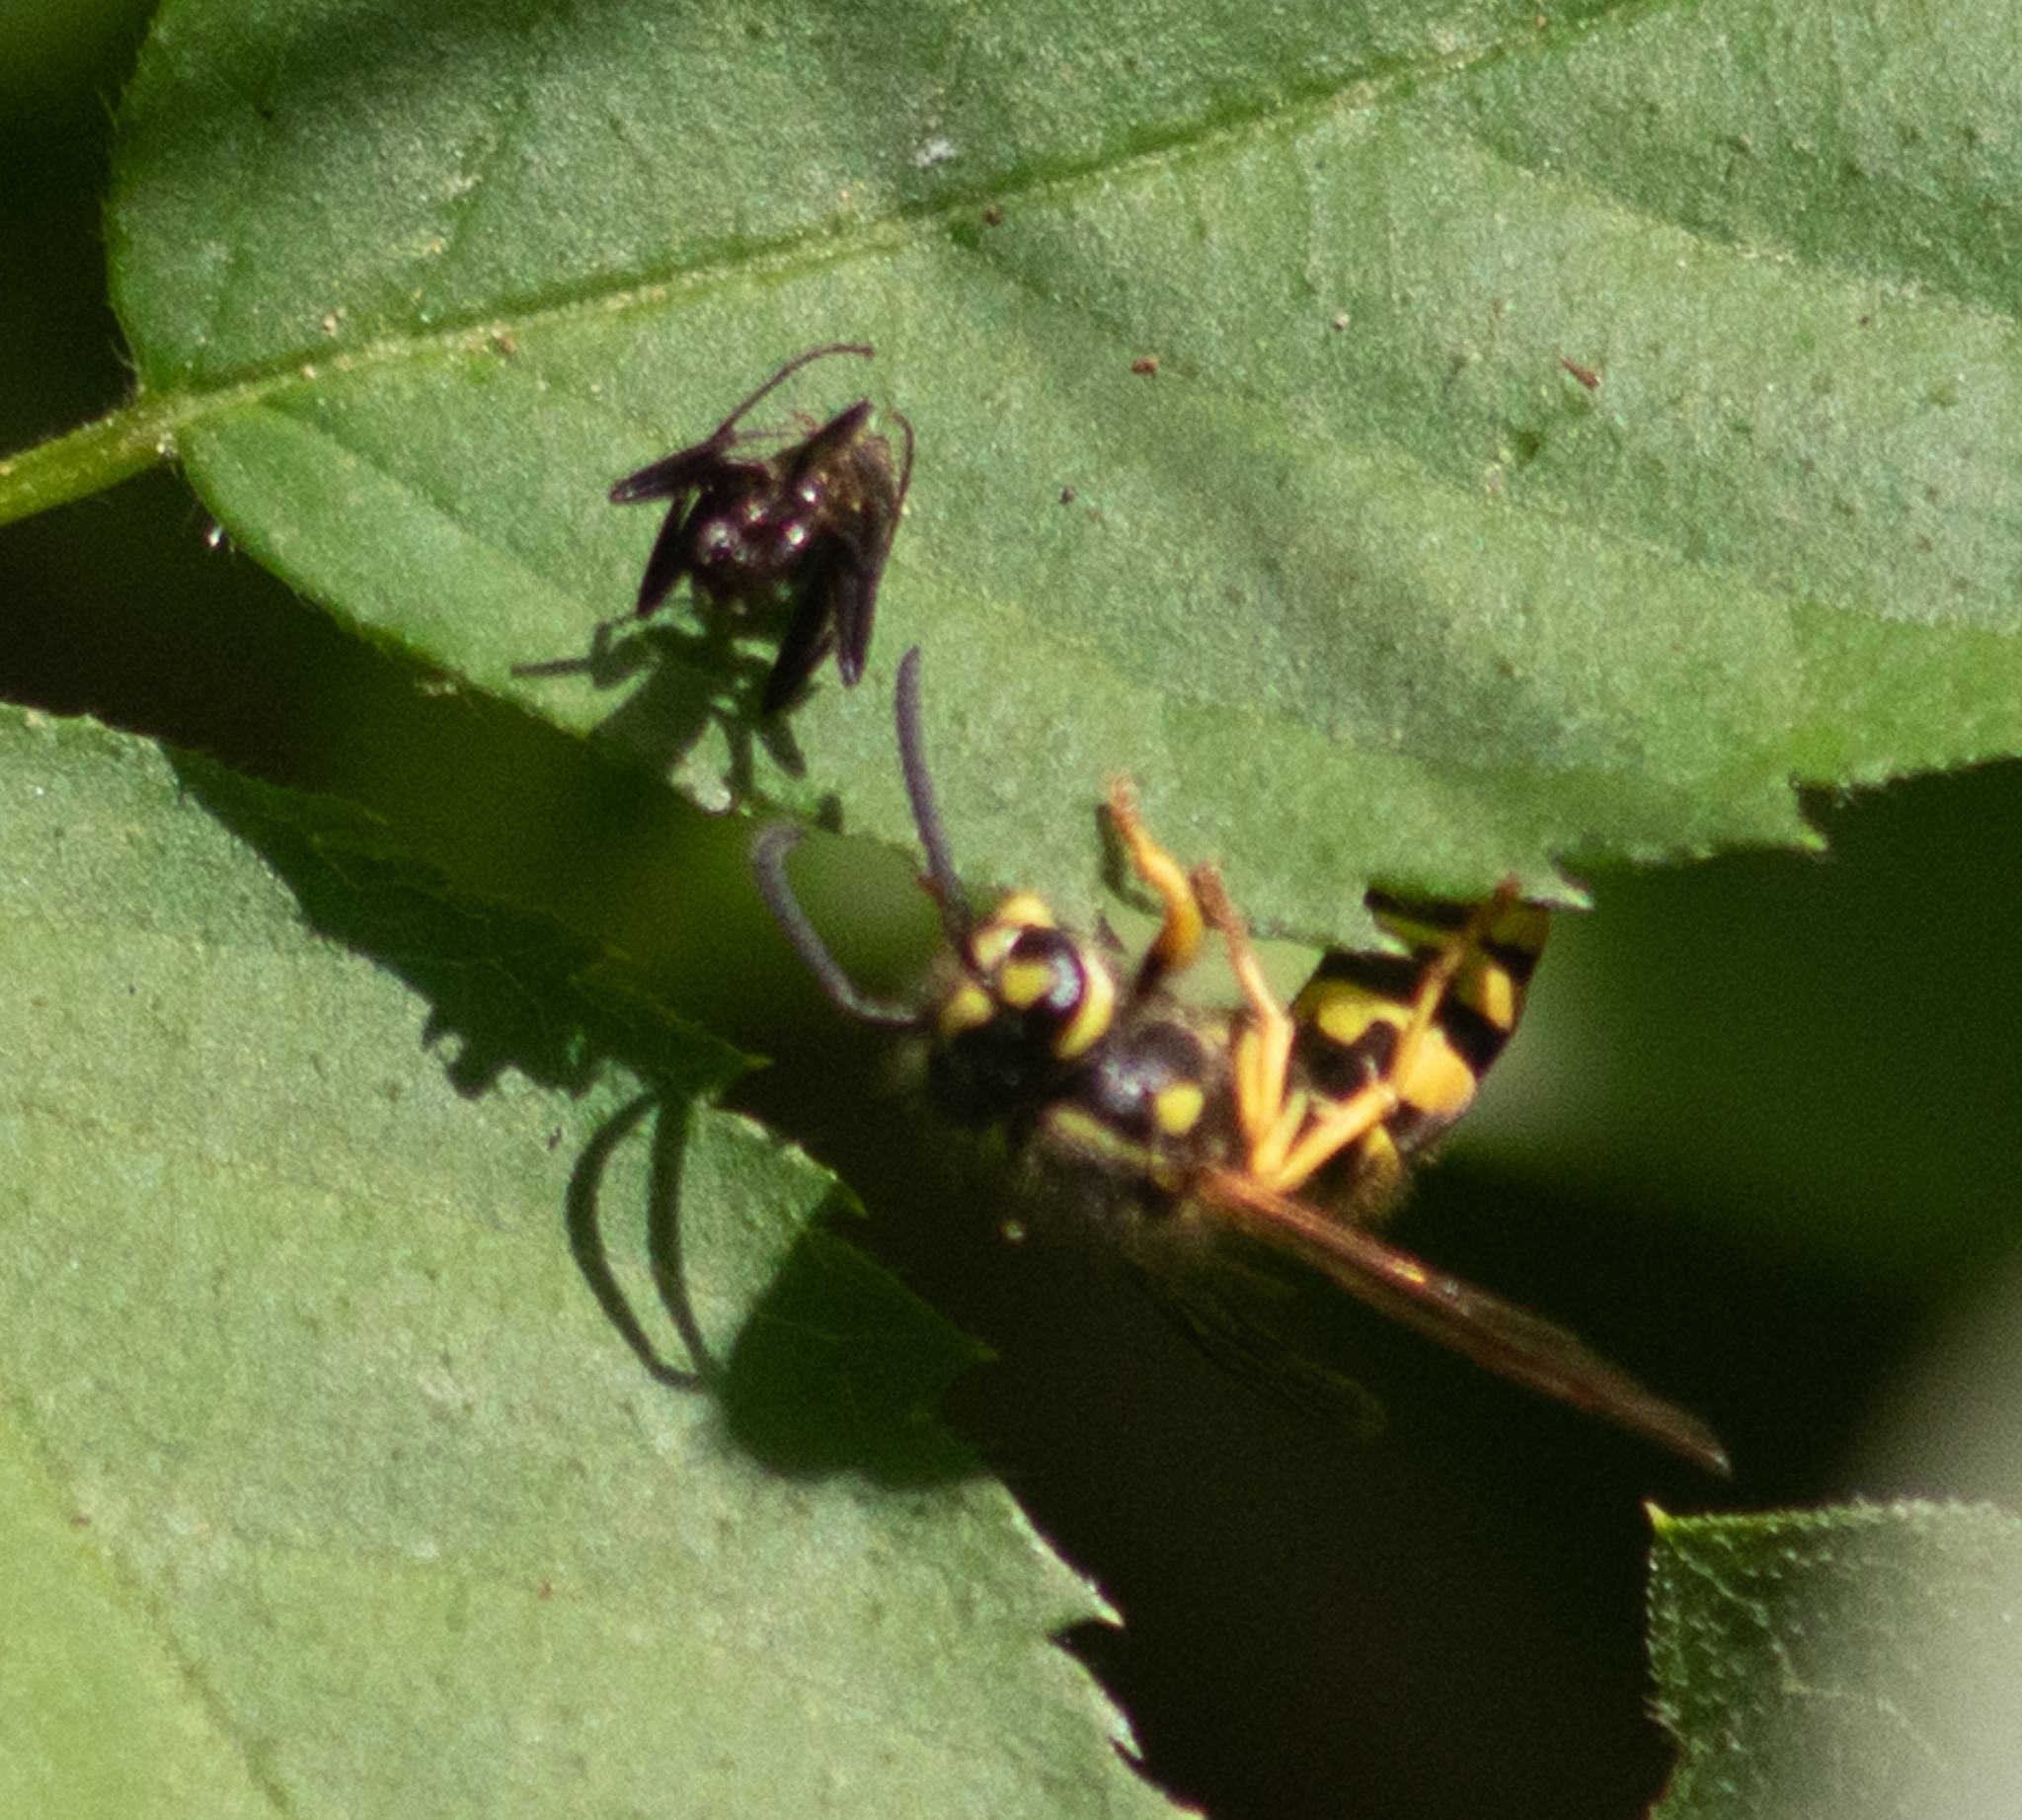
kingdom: Animalia
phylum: Arthropoda
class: Insecta
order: Hymenoptera
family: Vespidae
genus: Vespula
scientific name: Vespula maculifrons
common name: Eastern yellowjacket
